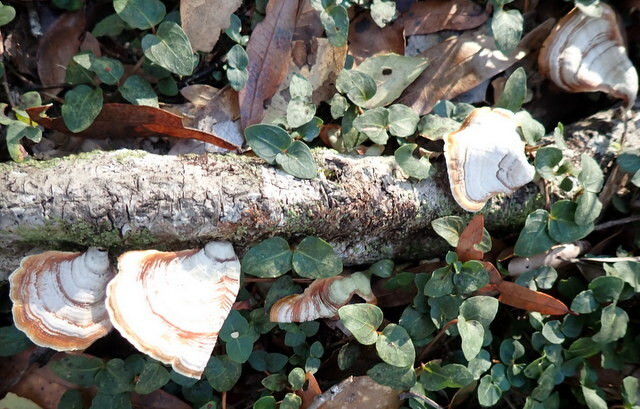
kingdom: Fungi
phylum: Basidiomycota
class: Agaricomycetes
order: Russulales
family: Stereaceae
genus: Stereum
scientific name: Stereum lobatum
